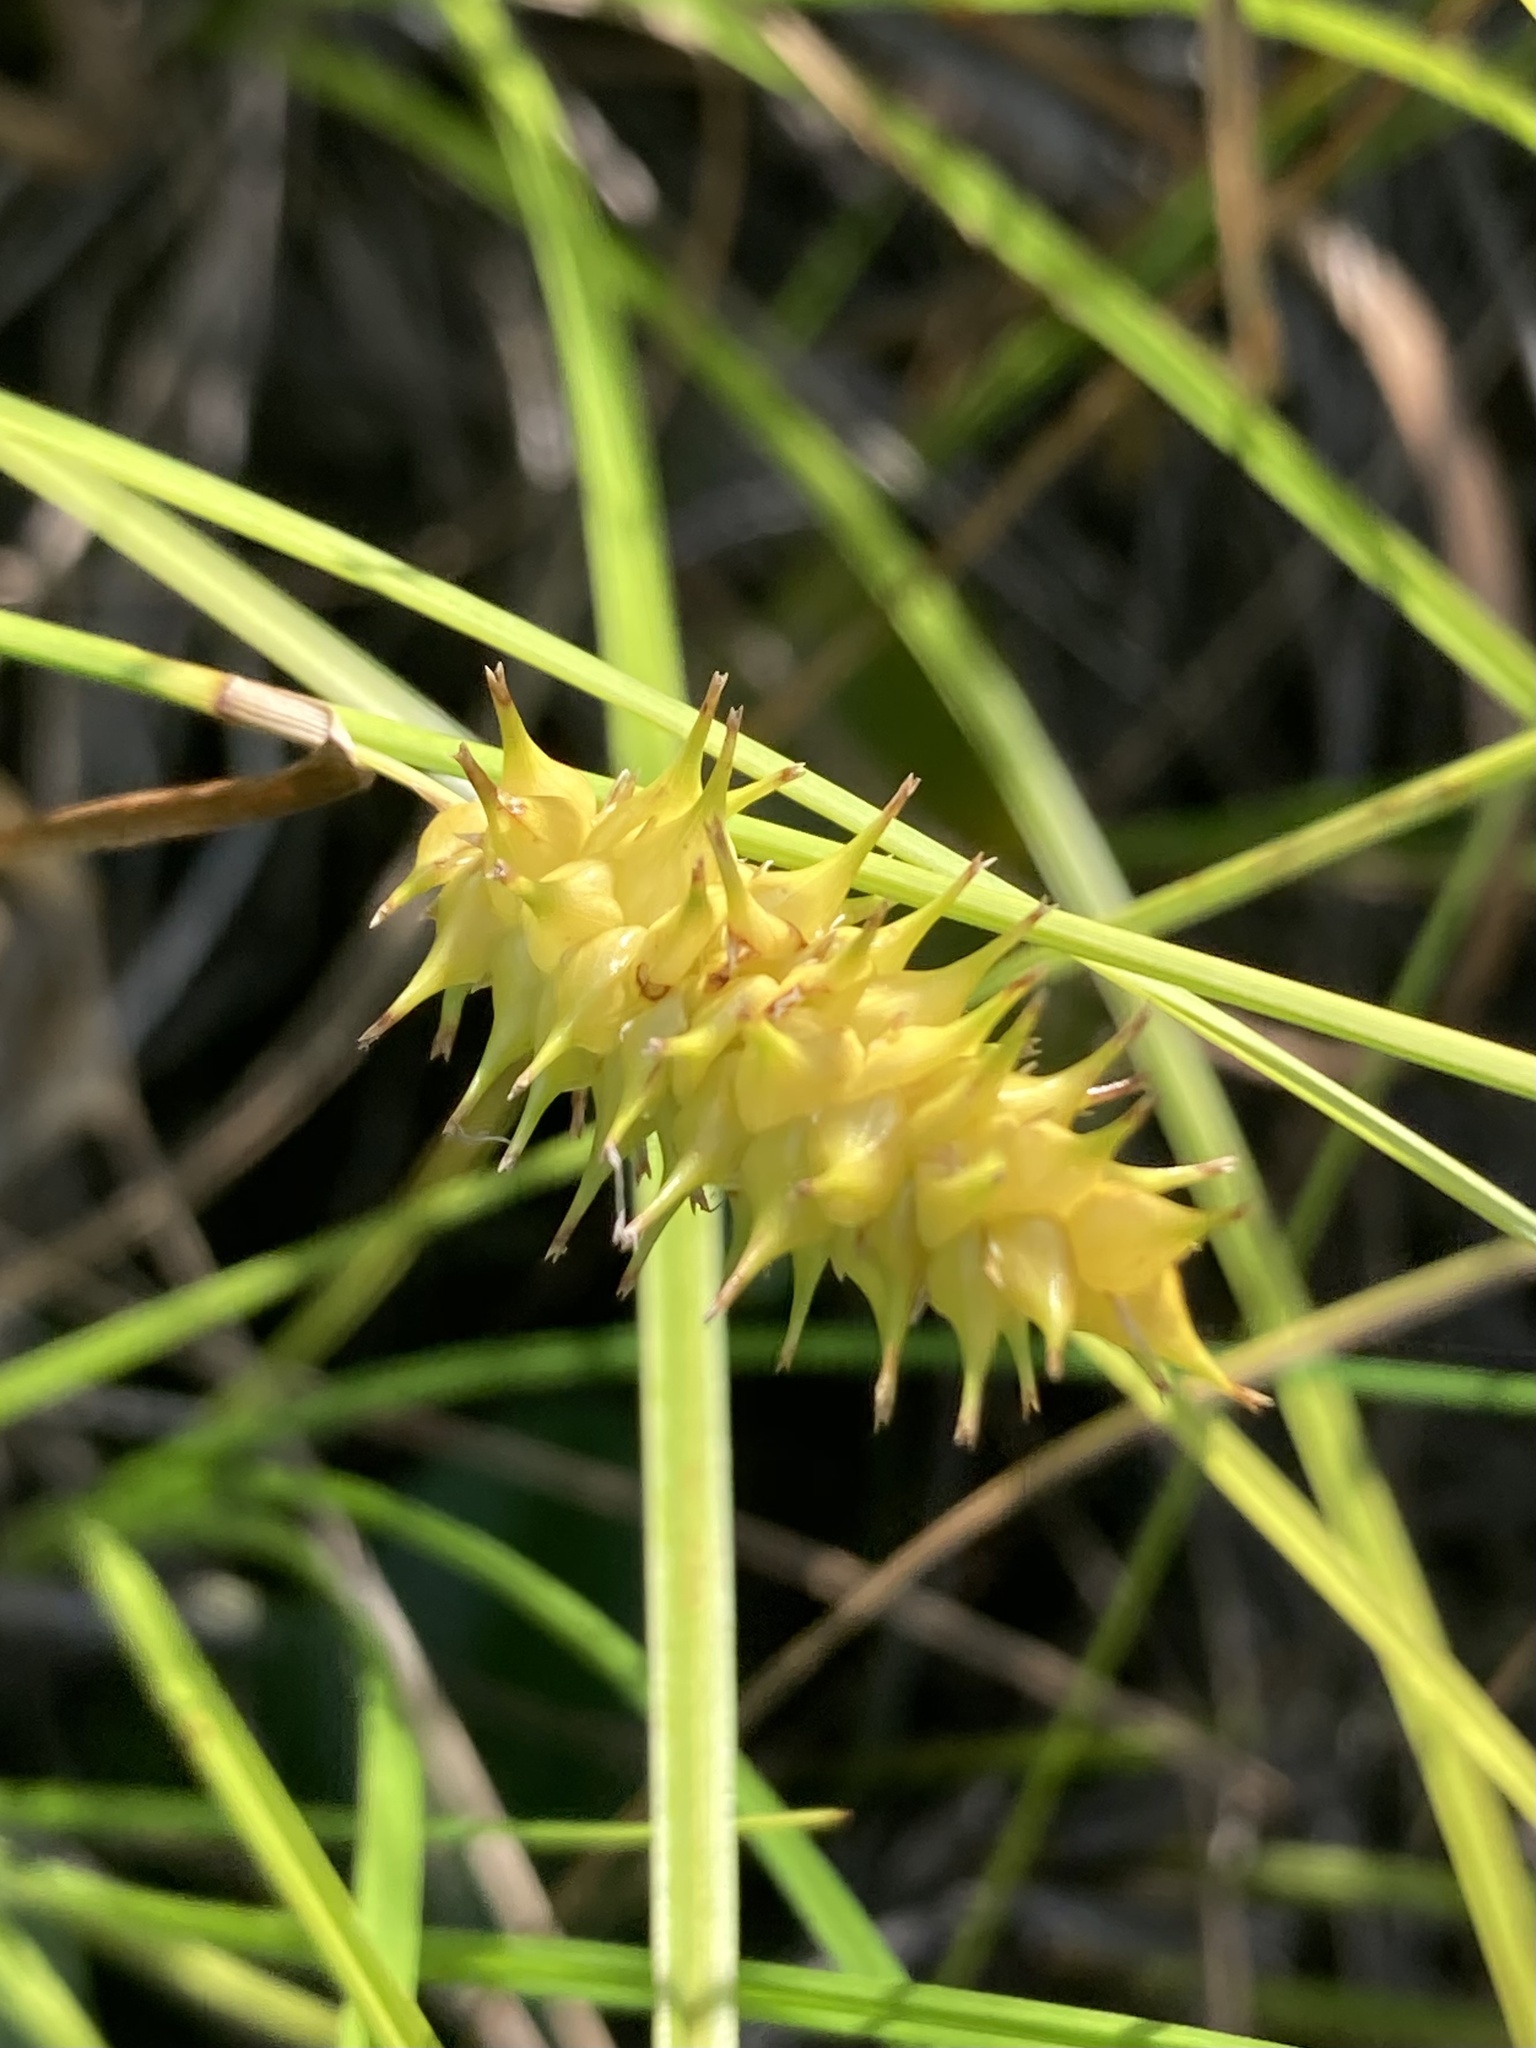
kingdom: Plantae
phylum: Tracheophyta
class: Liliopsida
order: Poales
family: Cyperaceae
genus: Carex
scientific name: Carex bullata
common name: Button sedge
